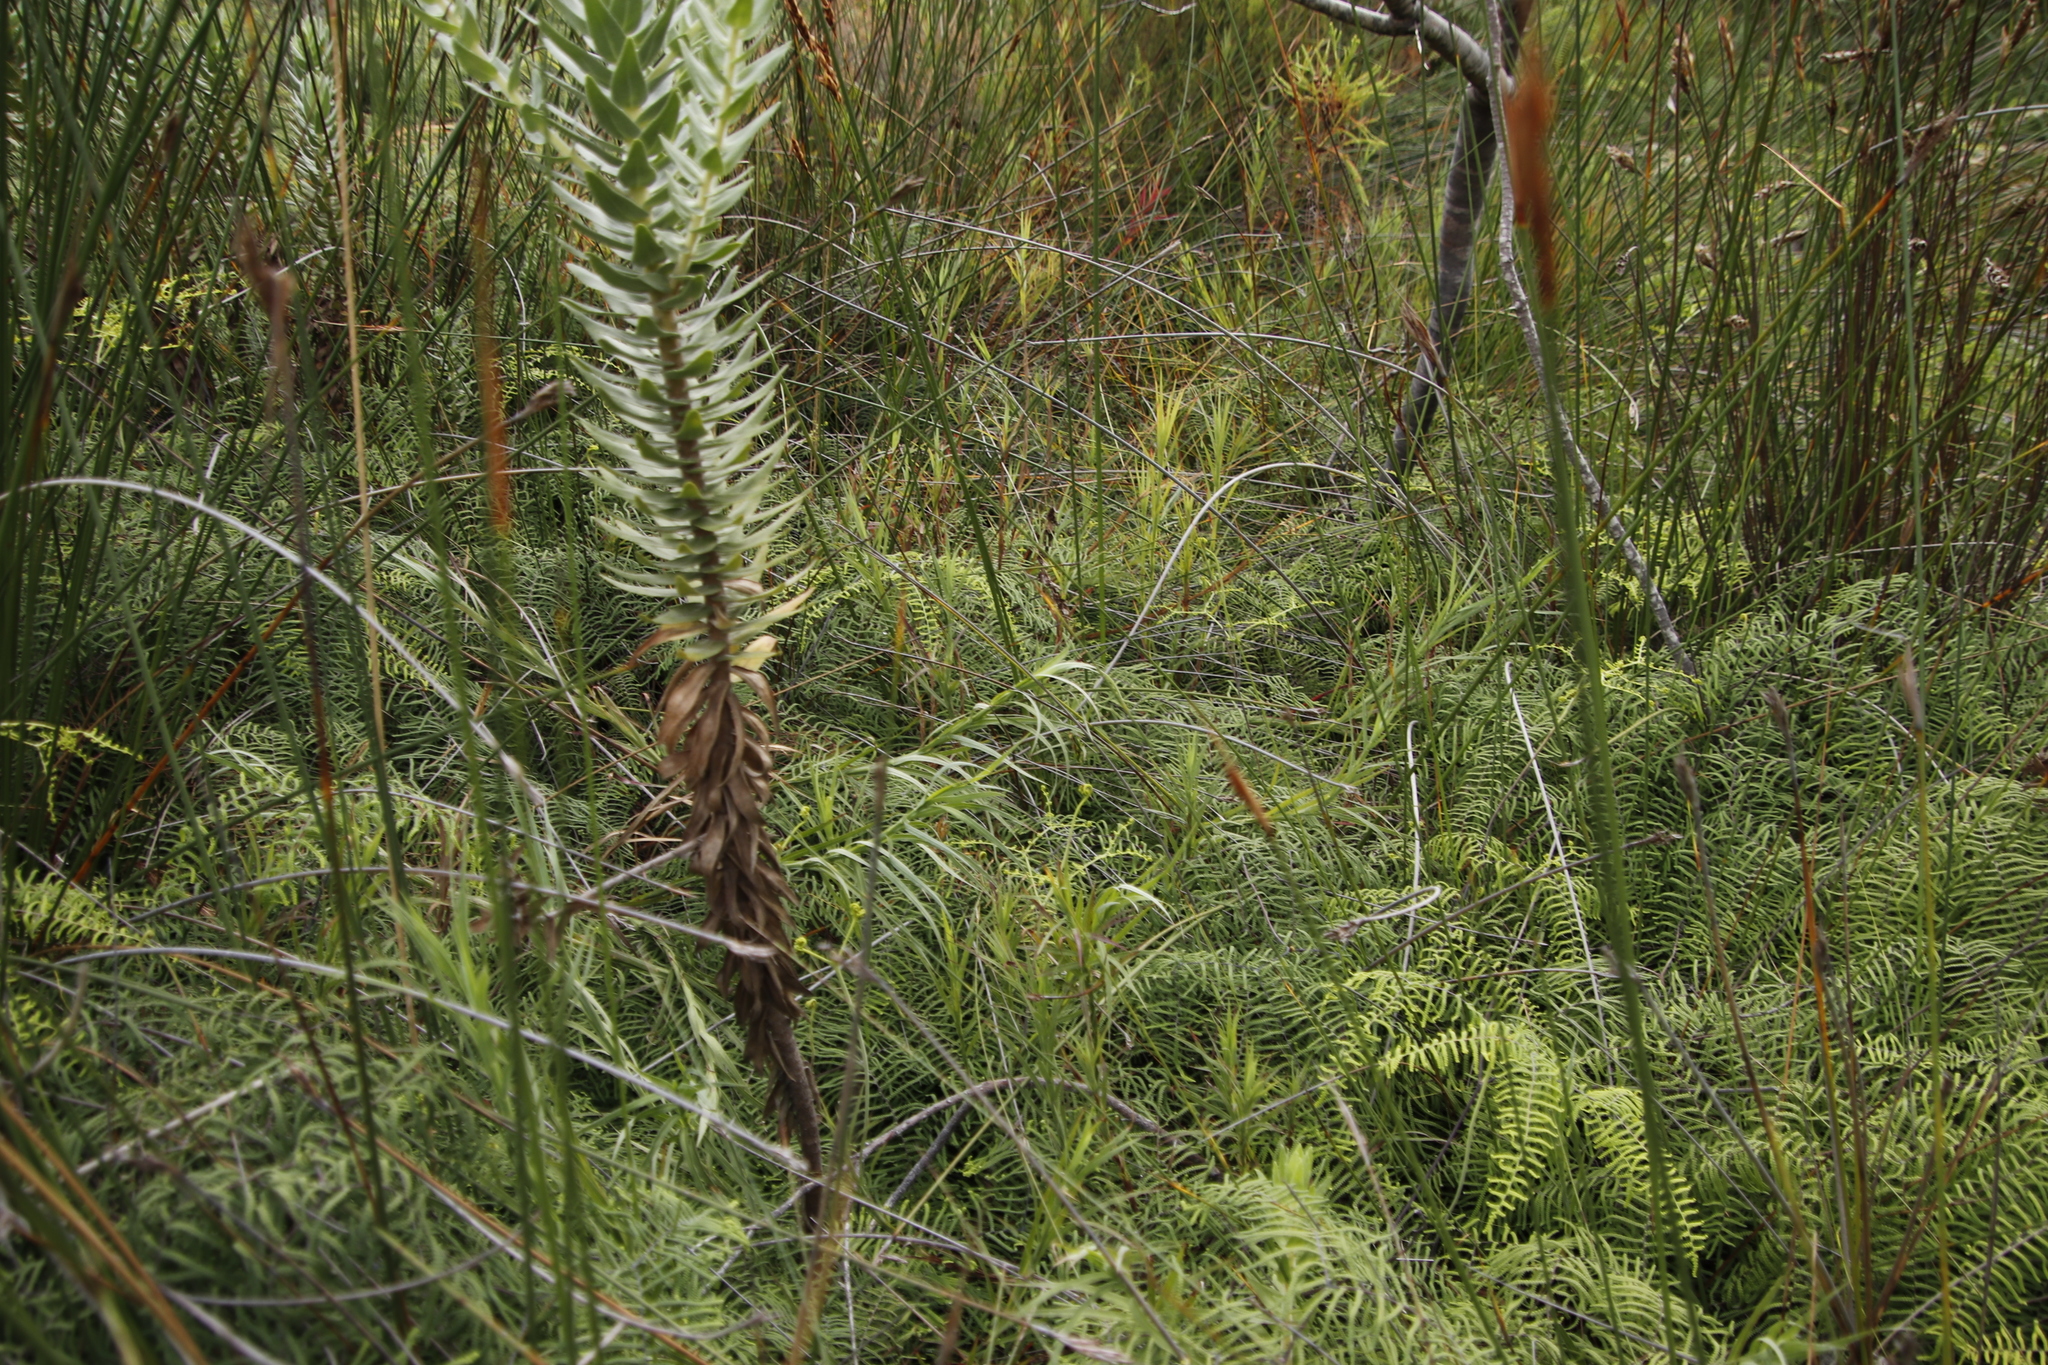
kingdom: Plantae
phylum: Tracheophyta
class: Polypodiopsida
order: Gleicheniales
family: Gleicheniaceae
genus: Gleichenia
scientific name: Gleichenia polypodioides
